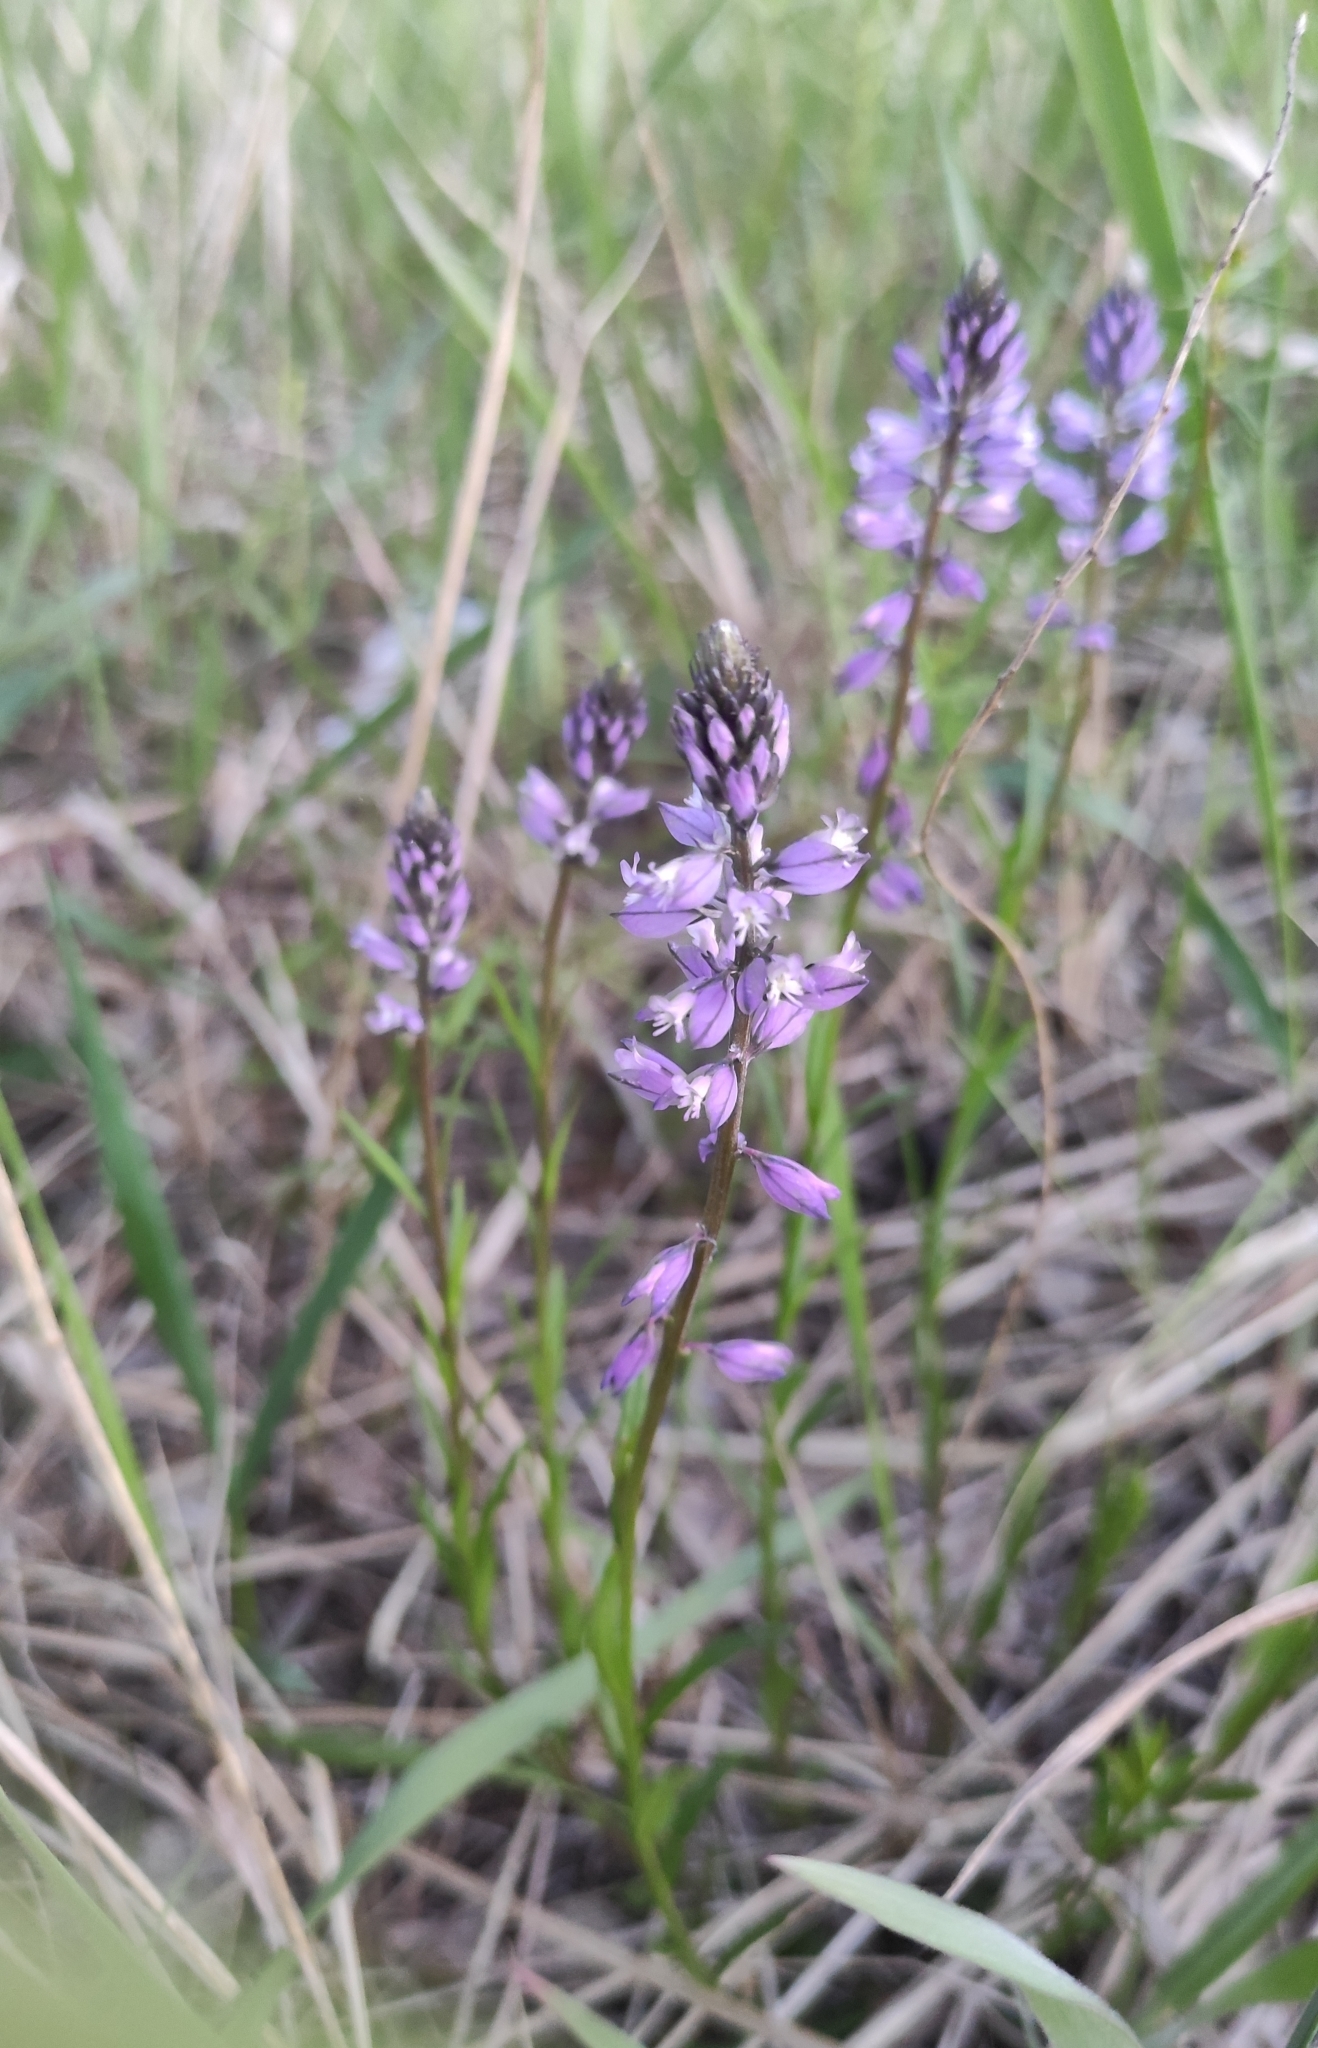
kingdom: Plantae
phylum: Tracheophyta
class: Magnoliopsida
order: Fabales
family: Polygalaceae
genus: Polygala
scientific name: Polygala comosa
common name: Tufted milkwort
